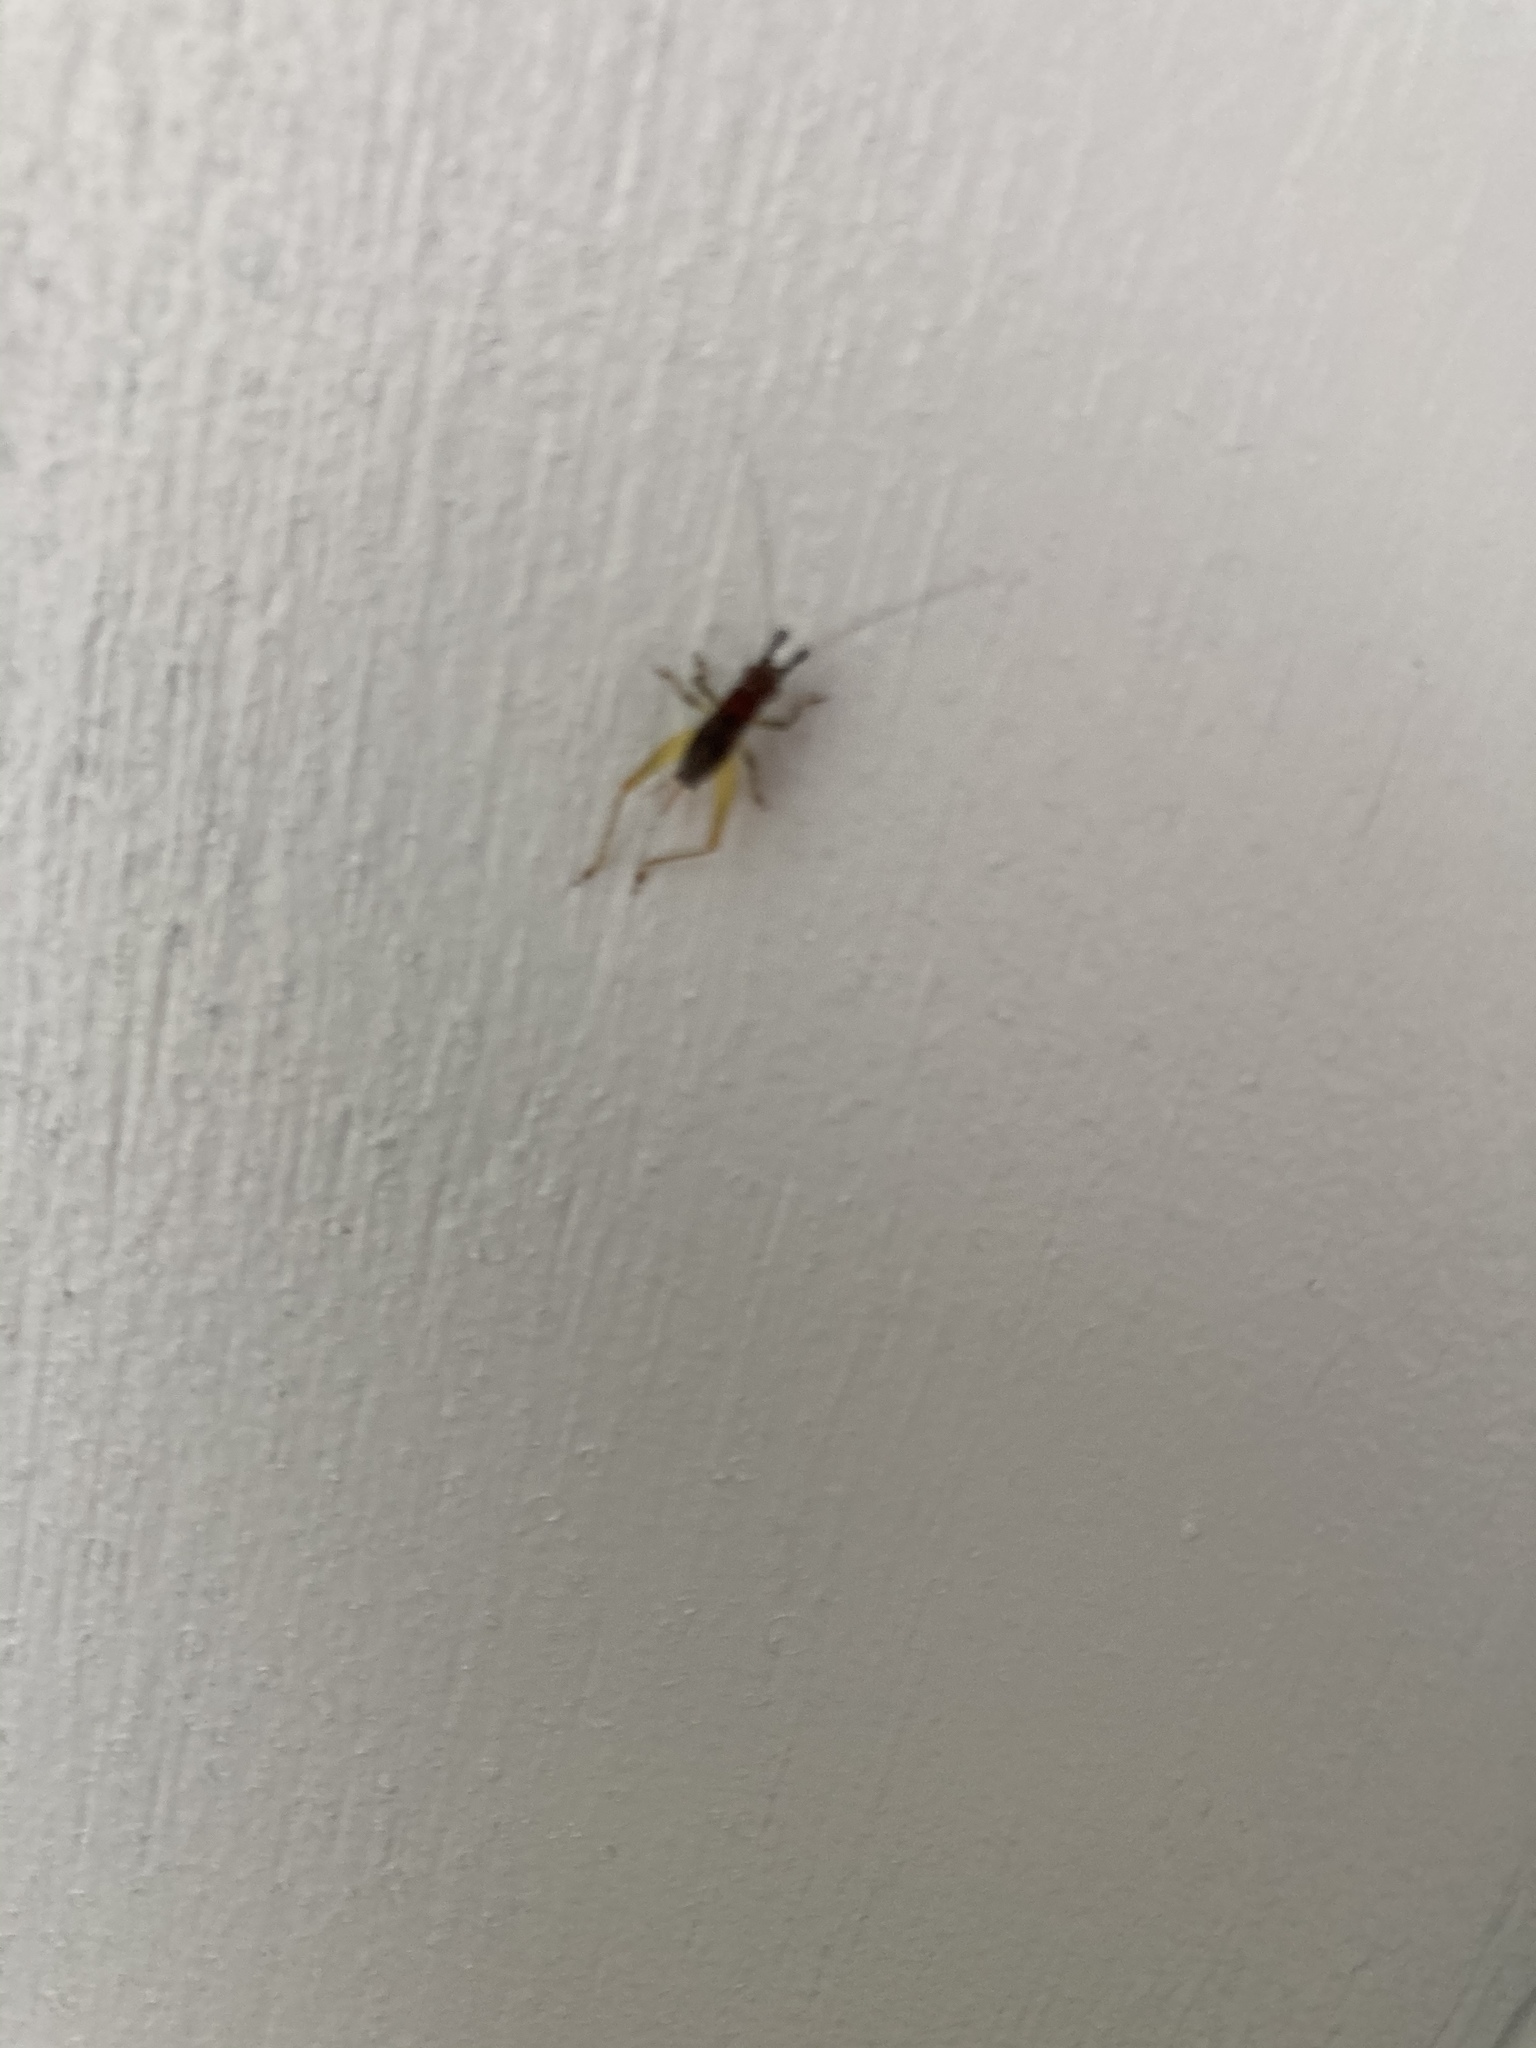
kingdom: Animalia
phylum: Arthropoda
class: Insecta
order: Orthoptera
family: Trigonidiidae
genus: Phyllopalpus
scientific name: Phyllopalpus pulchellus
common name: Handsome trig
